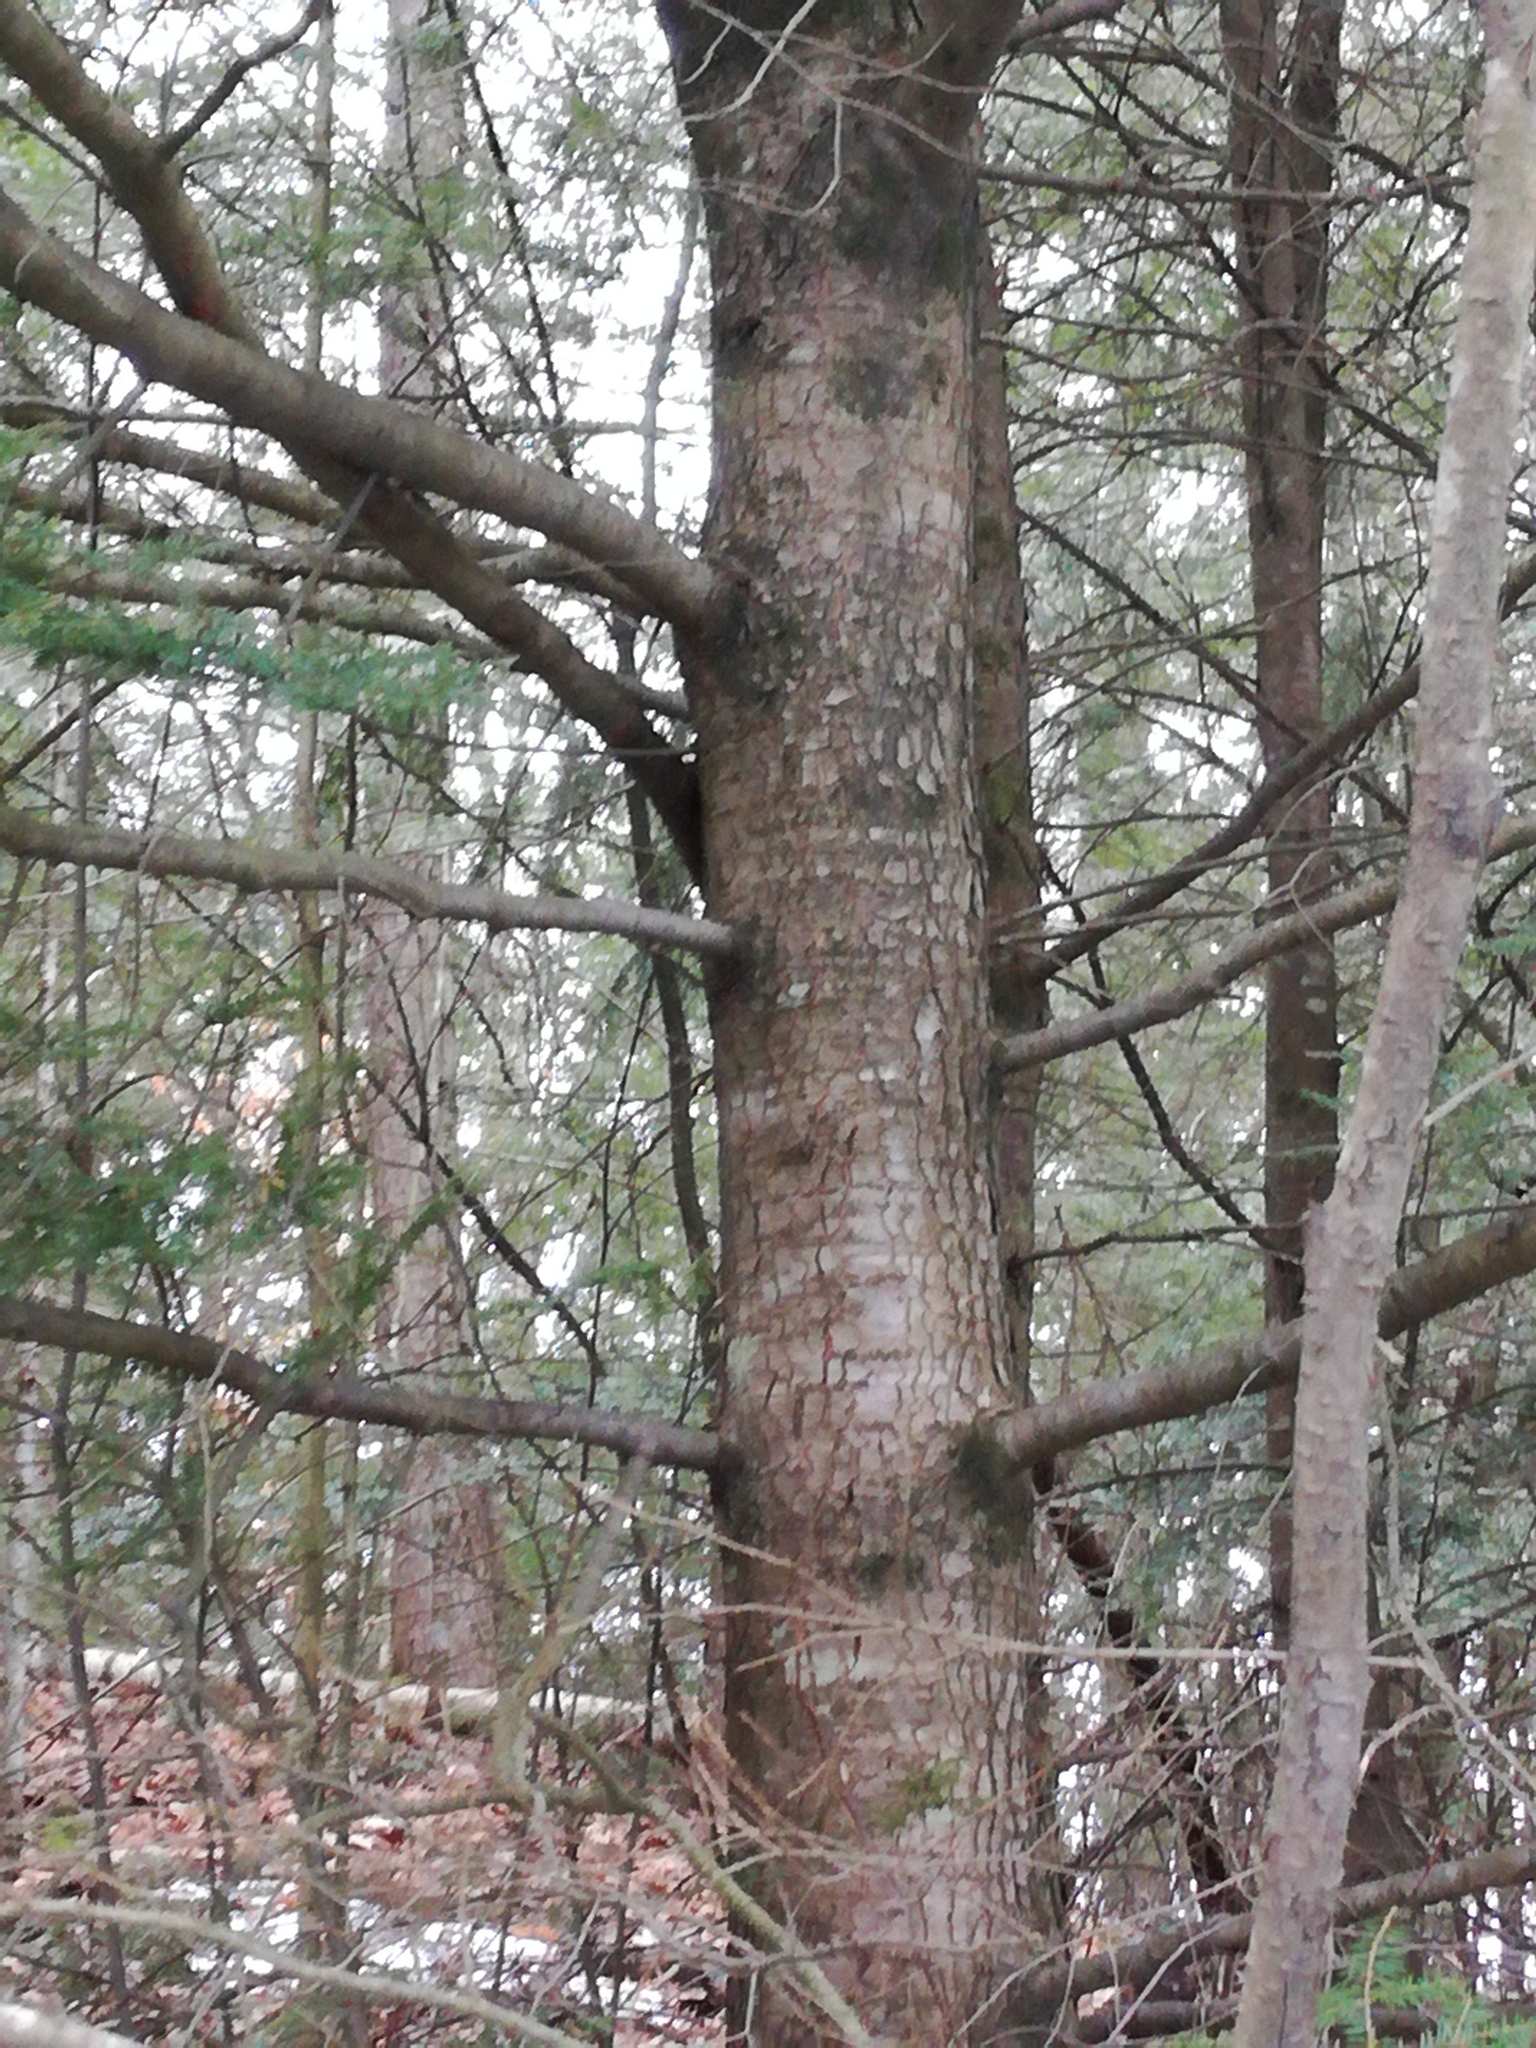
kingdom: Plantae
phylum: Tracheophyta
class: Pinopsida
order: Pinales
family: Pinaceae
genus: Tsuga
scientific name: Tsuga canadensis
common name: Eastern hemlock
